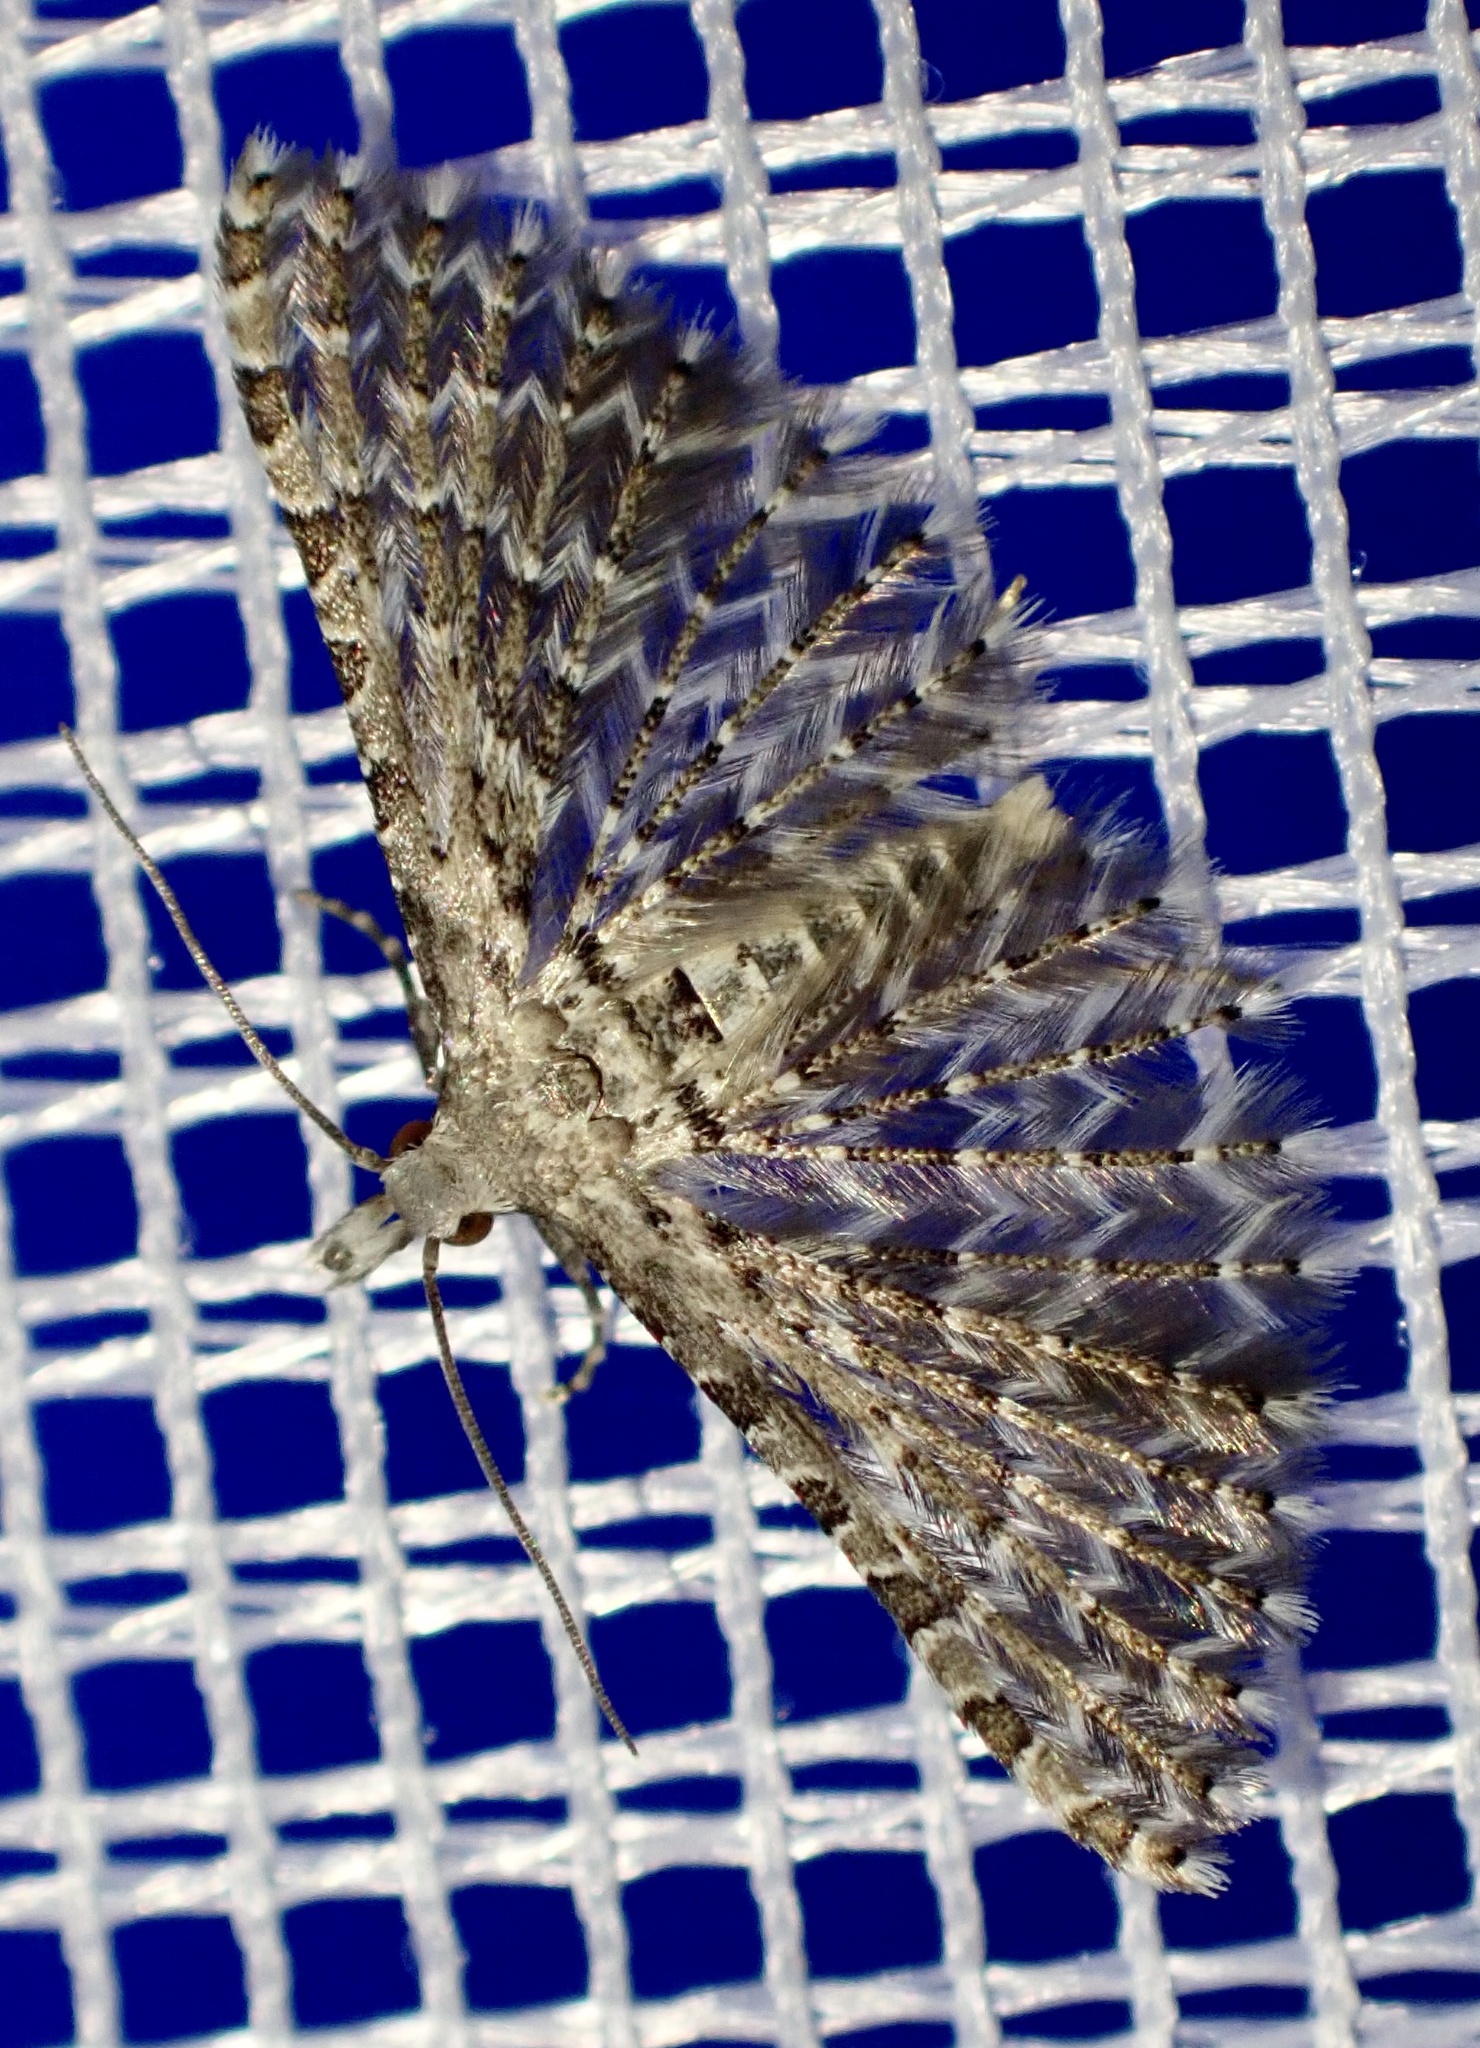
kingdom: Animalia
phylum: Arthropoda
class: Insecta
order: Lepidoptera
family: Alucitidae
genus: Alucita
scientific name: Alucita hexadactyla
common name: Twenty-plume moth
